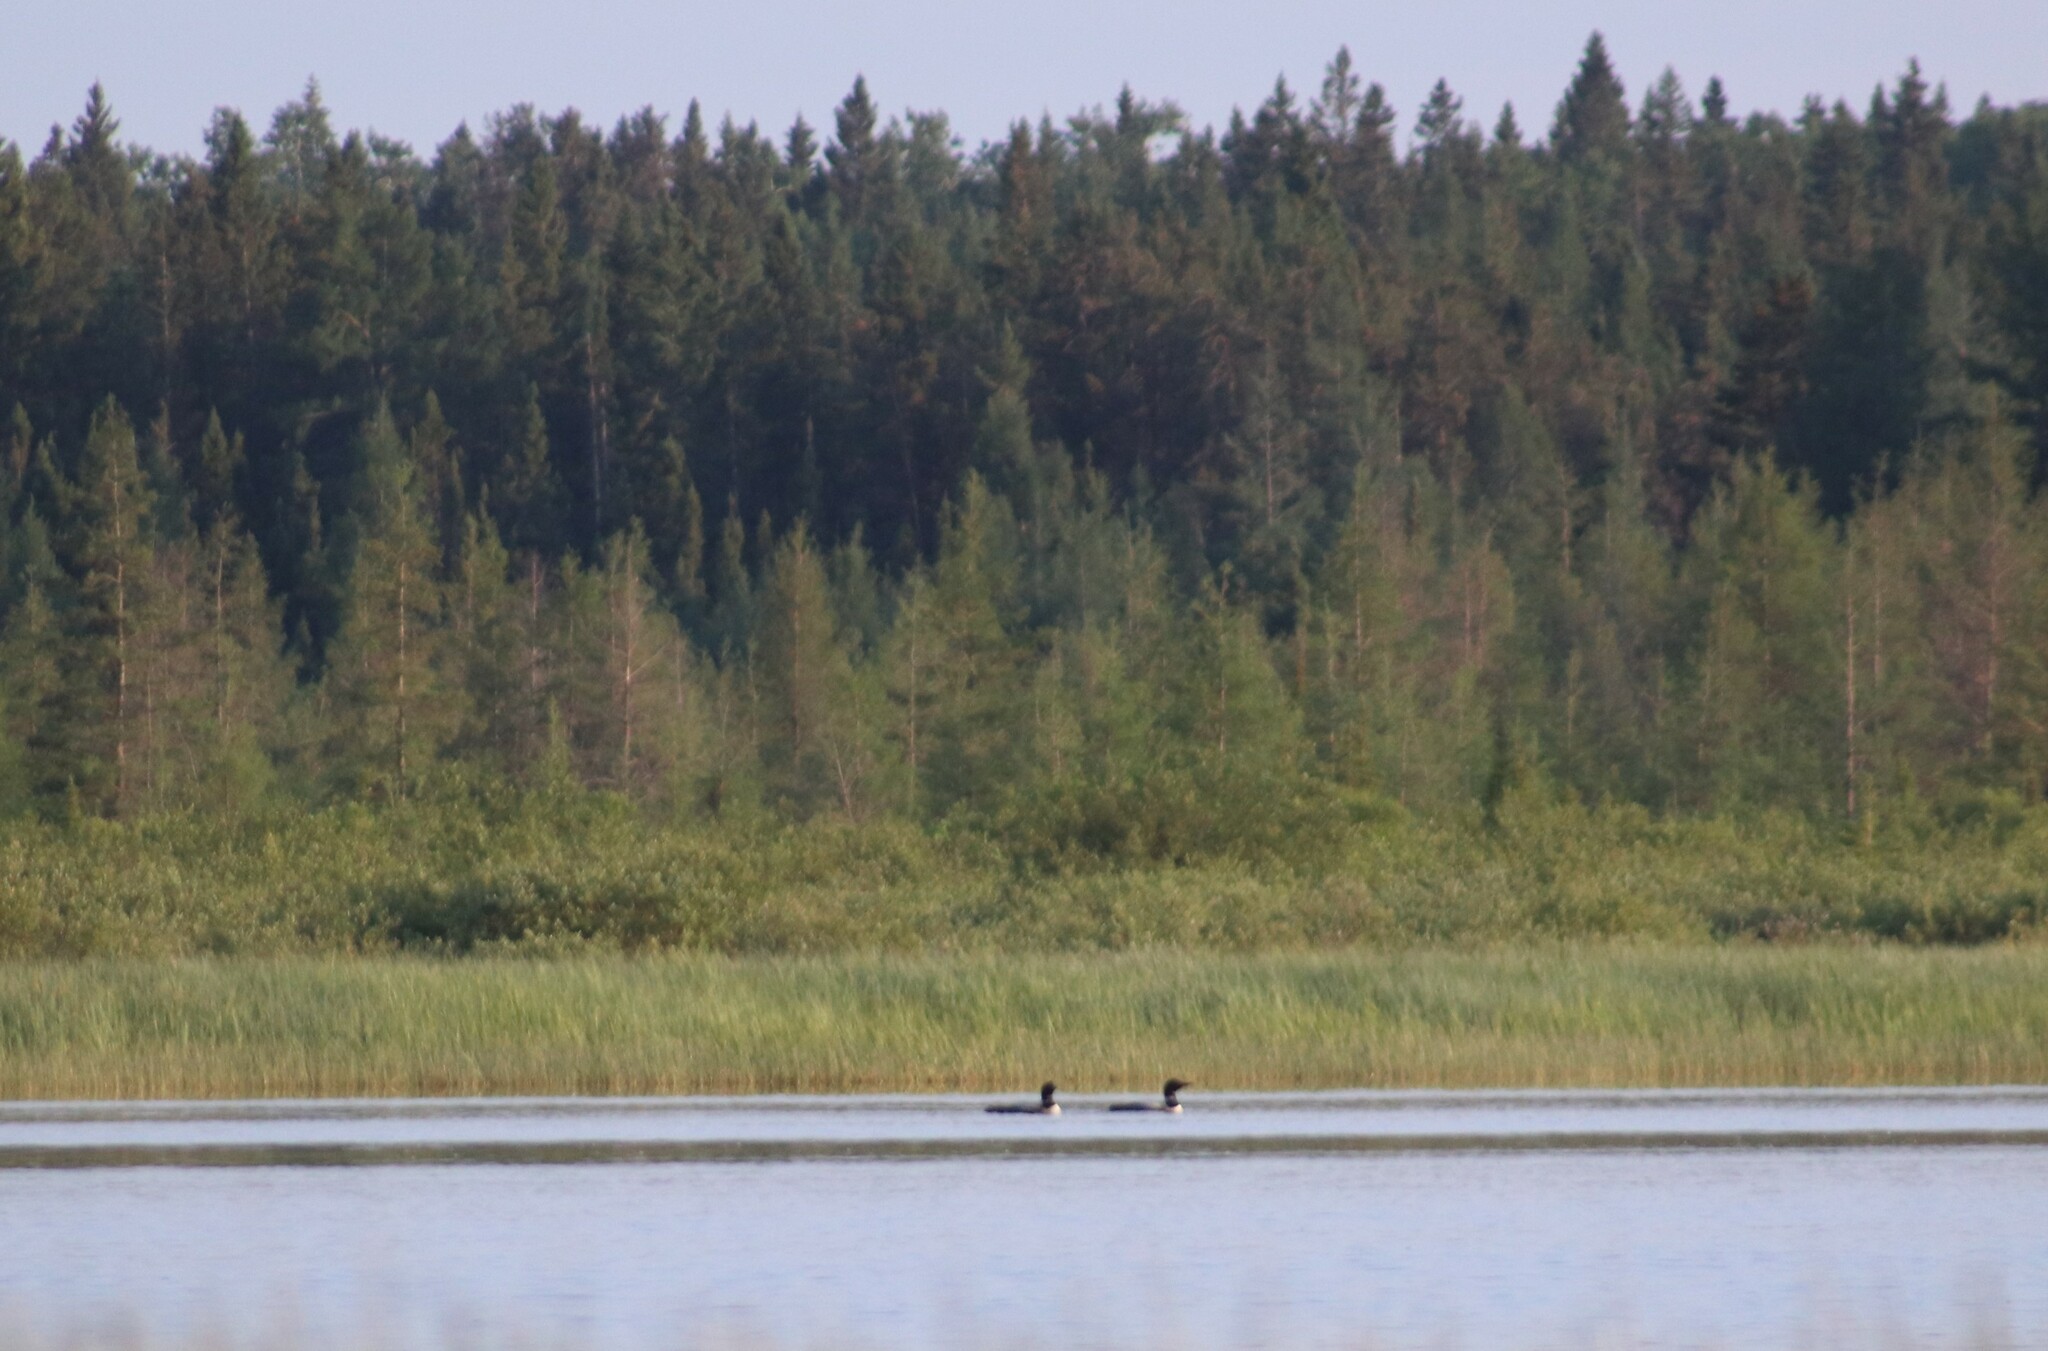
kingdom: Animalia
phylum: Chordata
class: Aves
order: Gaviiformes
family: Gaviidae
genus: Gavia
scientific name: Gavia immer
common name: Common loon
